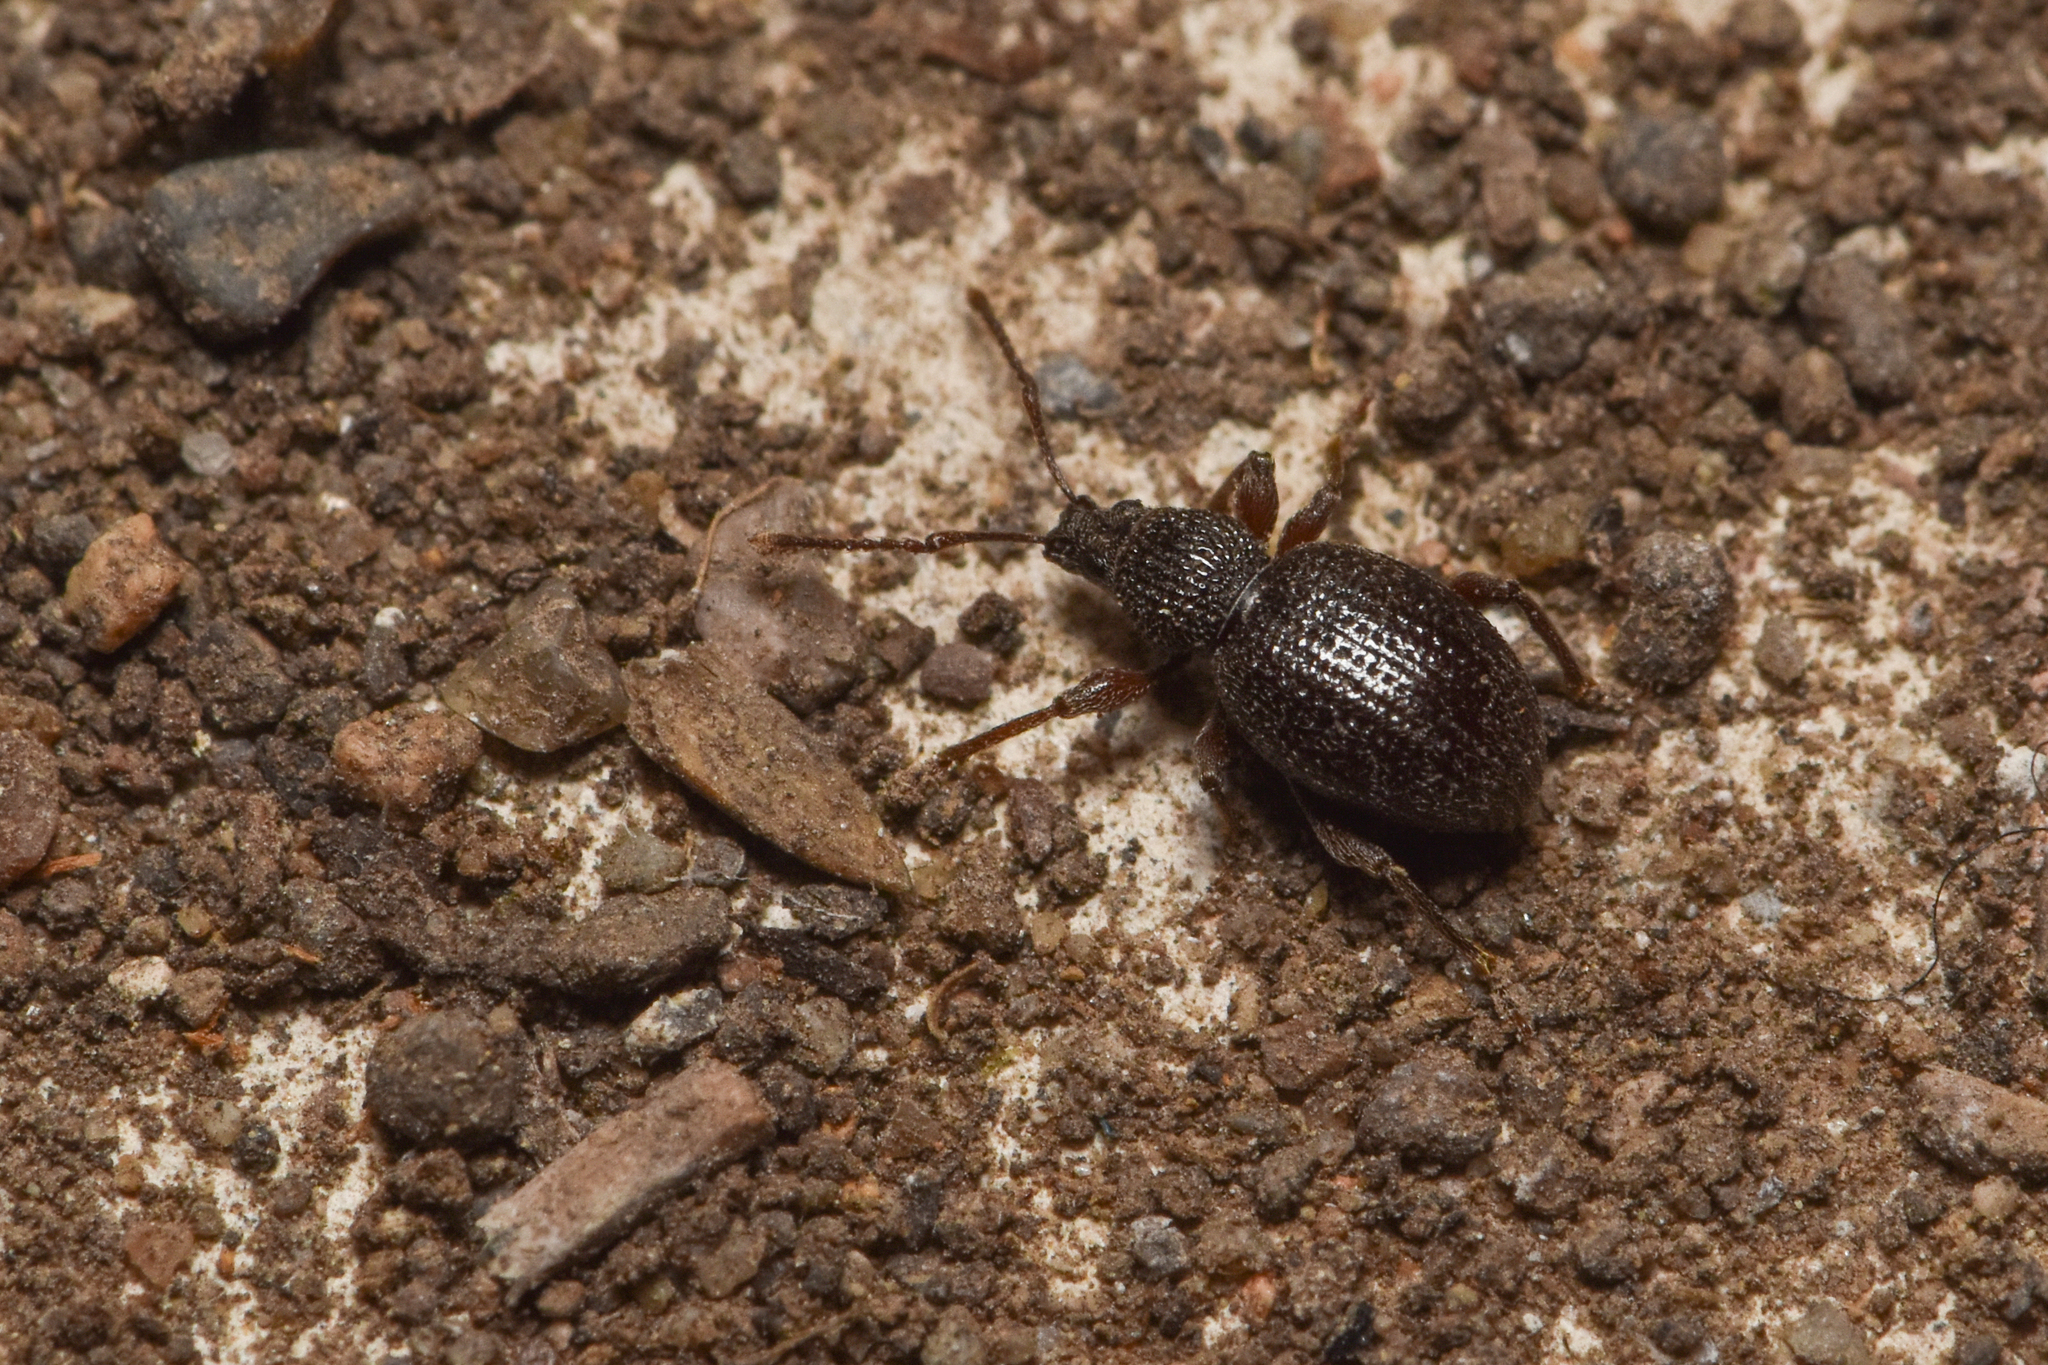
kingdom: Animalia
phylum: Arthropoda
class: Insecta
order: Coleoptera
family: Curculionidae
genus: Otiorhynchus
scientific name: Otiorhynchus ovatus
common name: Strawberry root weevil
